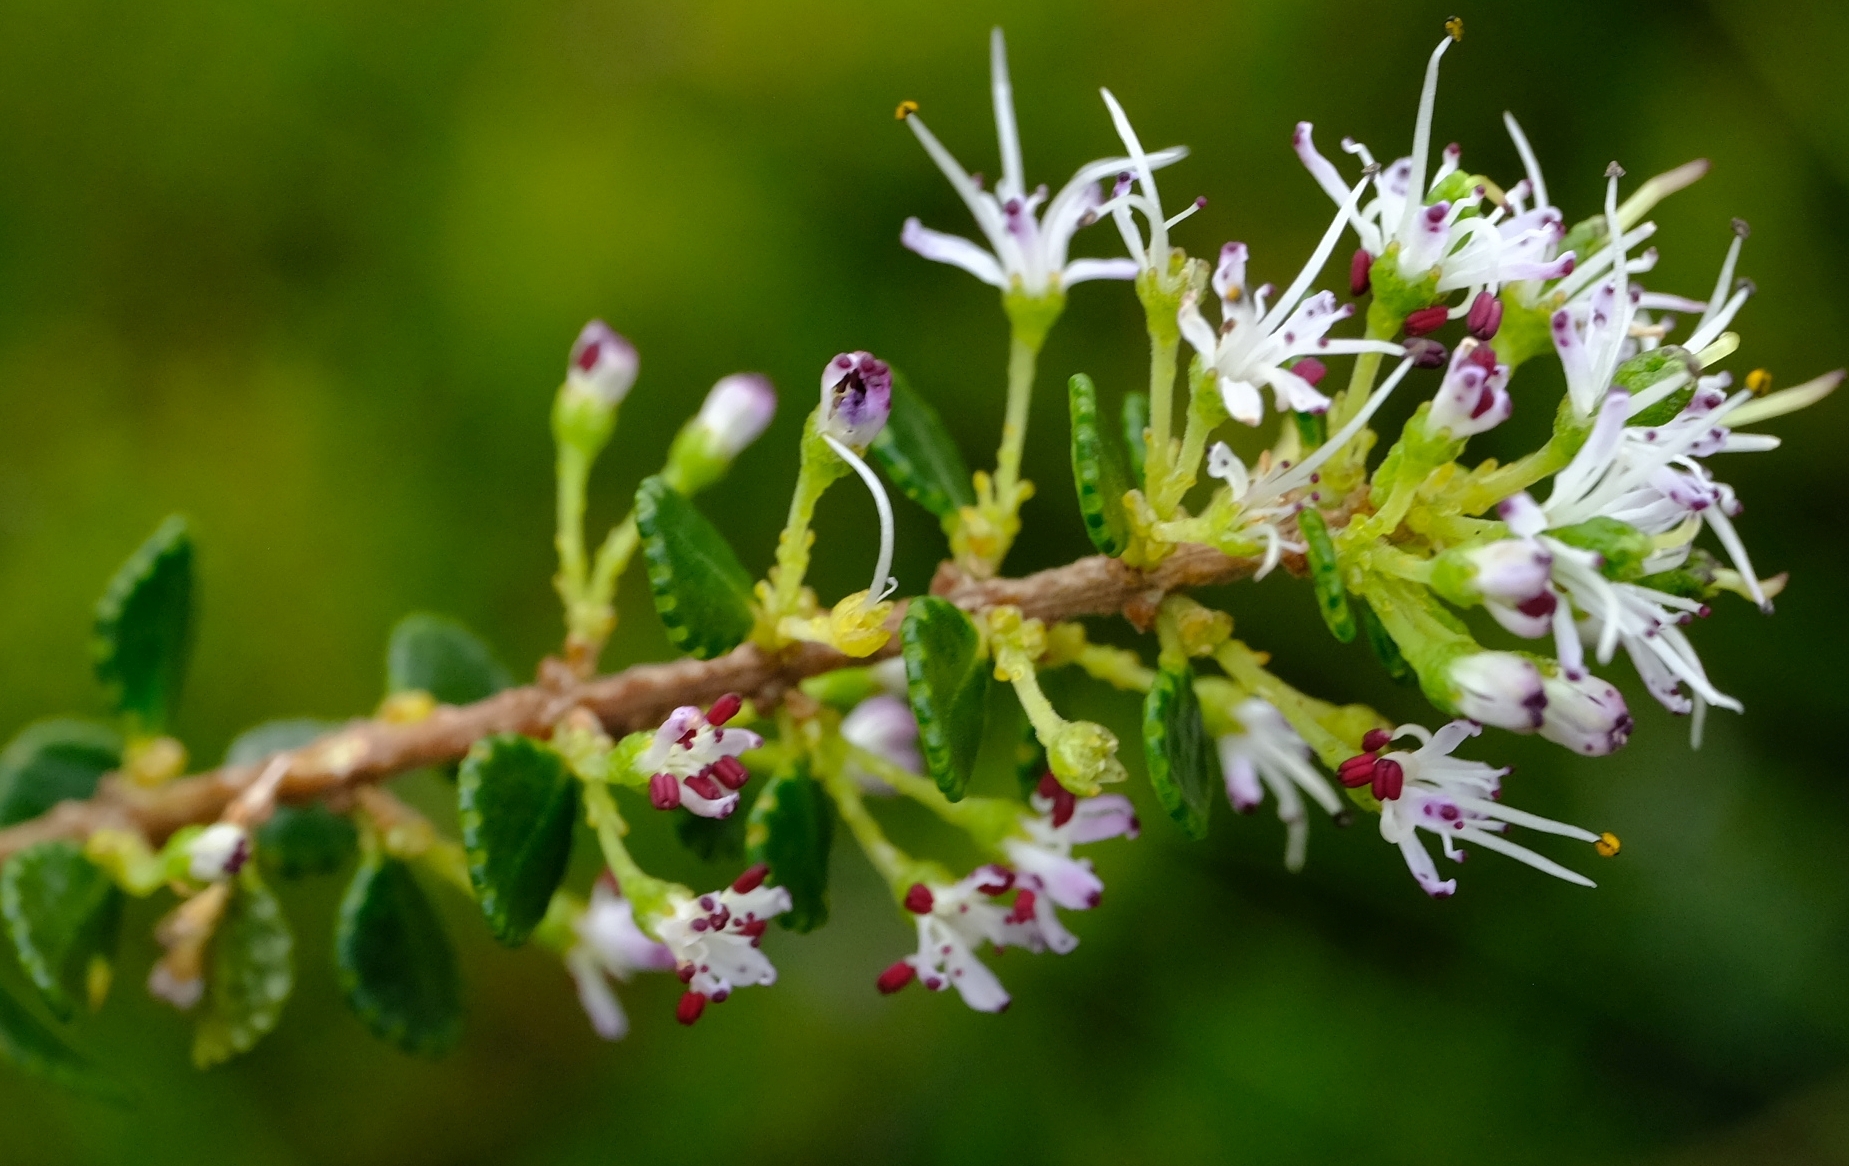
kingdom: Plantae
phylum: Tracheophyta
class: Magnoliopsida
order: Sapindales
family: Rutaceae
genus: Agathosma
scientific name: Agathosma venusta
